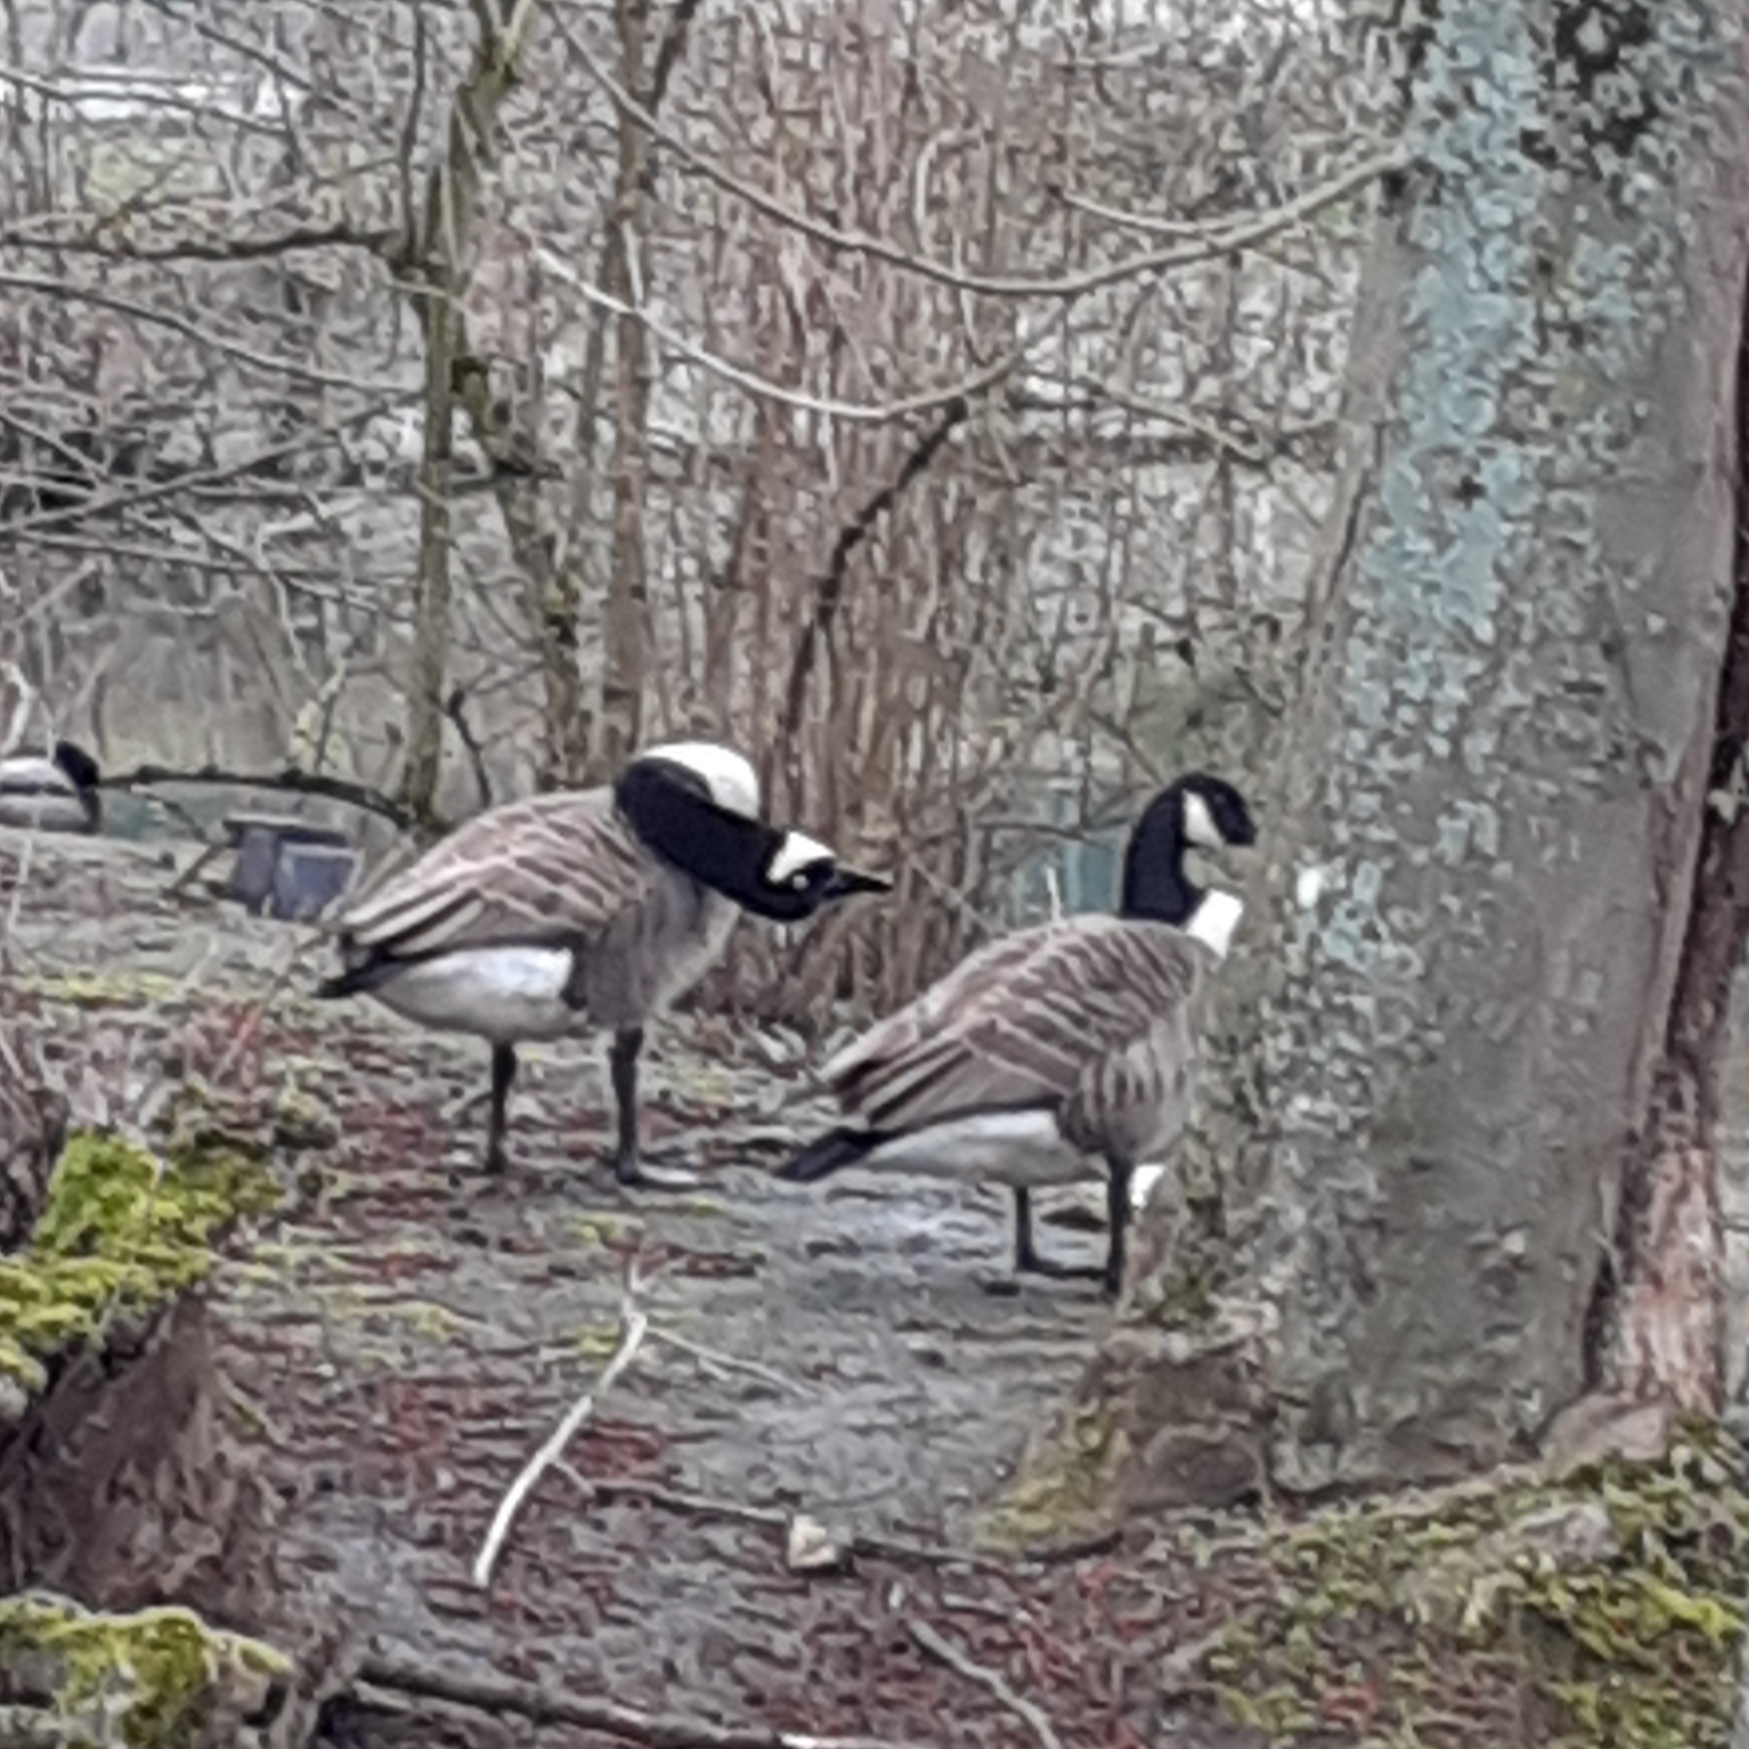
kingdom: Animalia
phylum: Chordata
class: Aves
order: Anseriformes
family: Anatidae
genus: Branta
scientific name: Branta canadensis
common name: Canada goose
